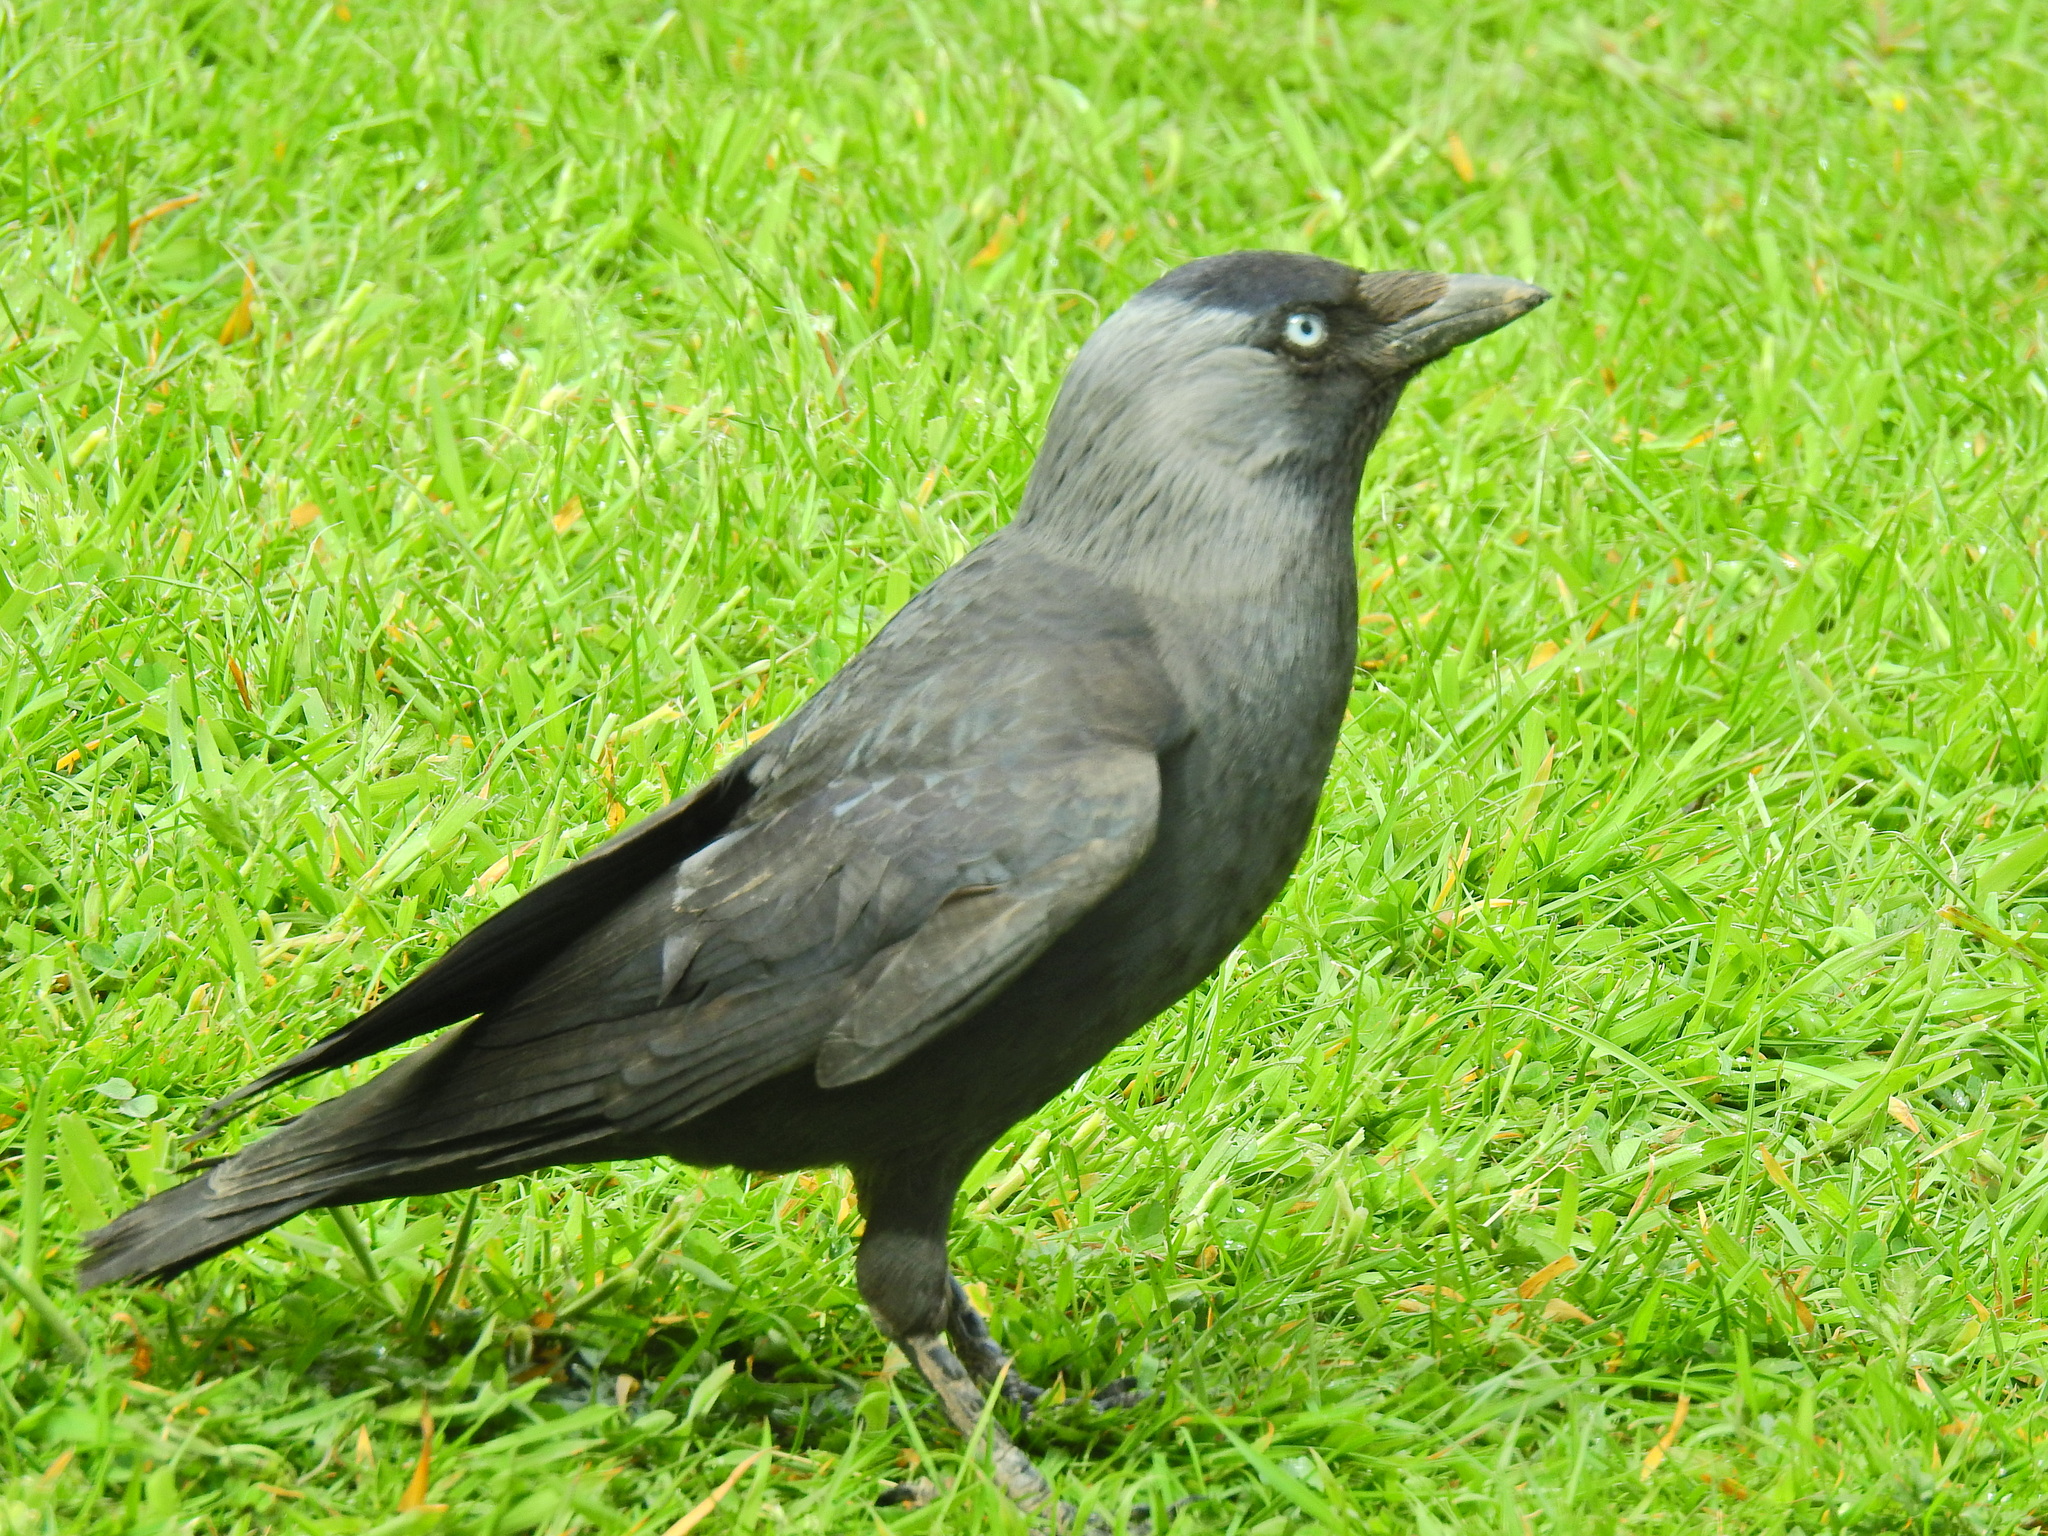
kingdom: Animalia
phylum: Chordata
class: Aves
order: Passeriformes
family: Corvidae
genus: Coloeus
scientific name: Coloeus monedula
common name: Western jackdaw
